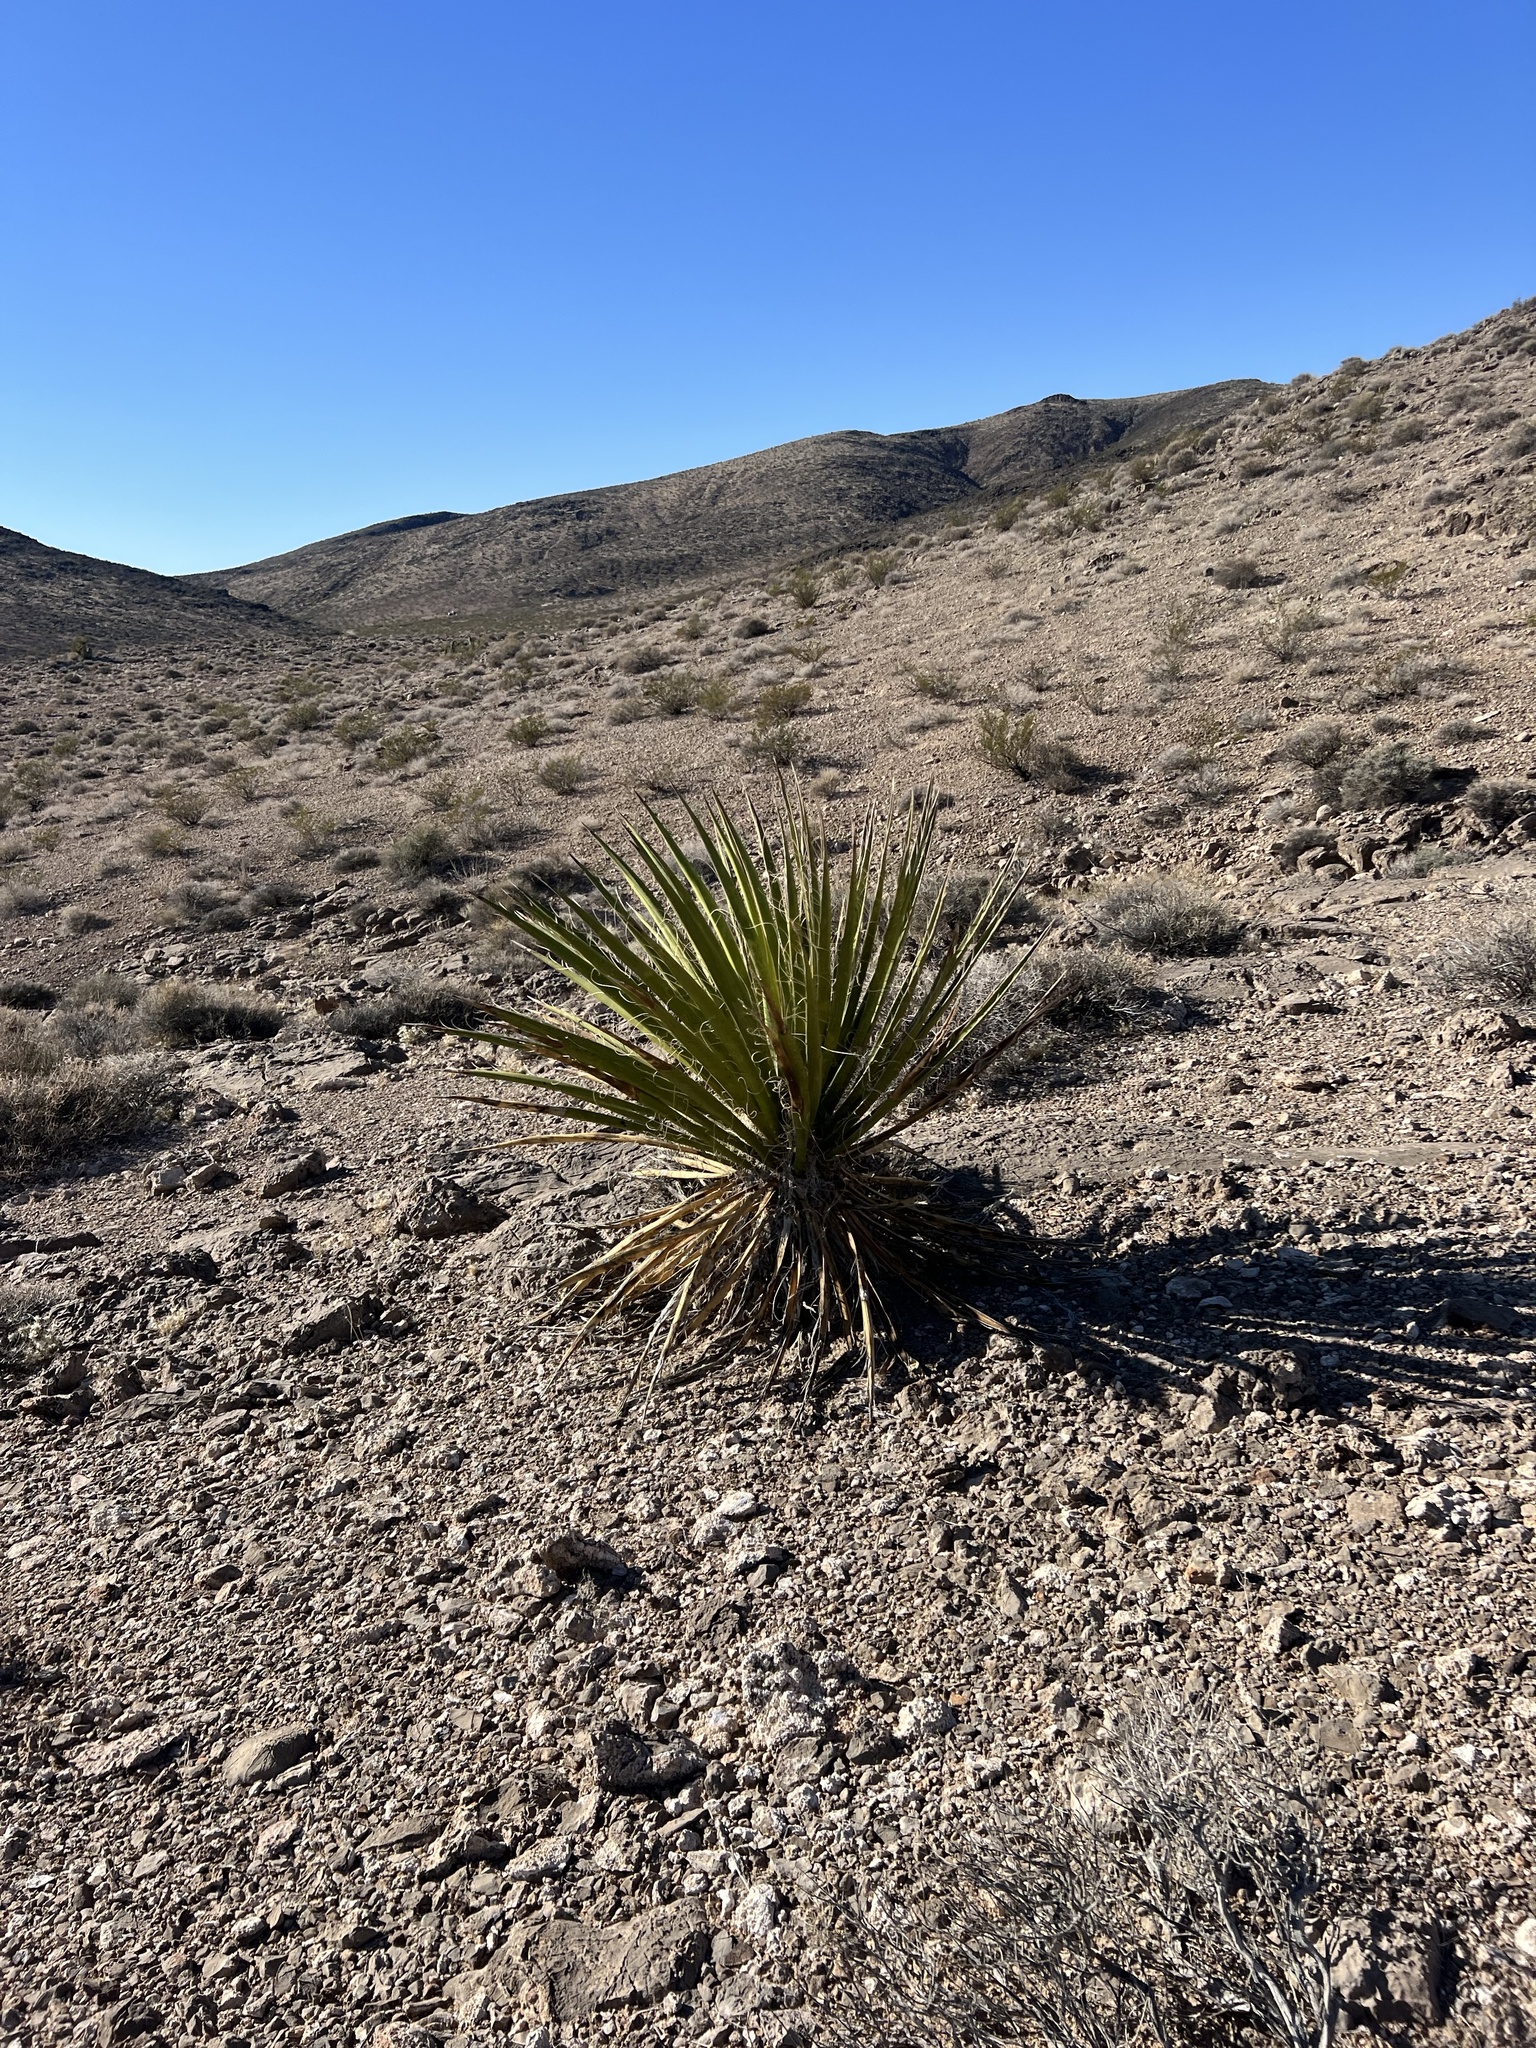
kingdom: Plantae
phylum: Tracheophyta
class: Liliopsida
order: Asparagales
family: Asparagaceae
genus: Yucca
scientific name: Yucca schidigera
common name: Mojave yucca
